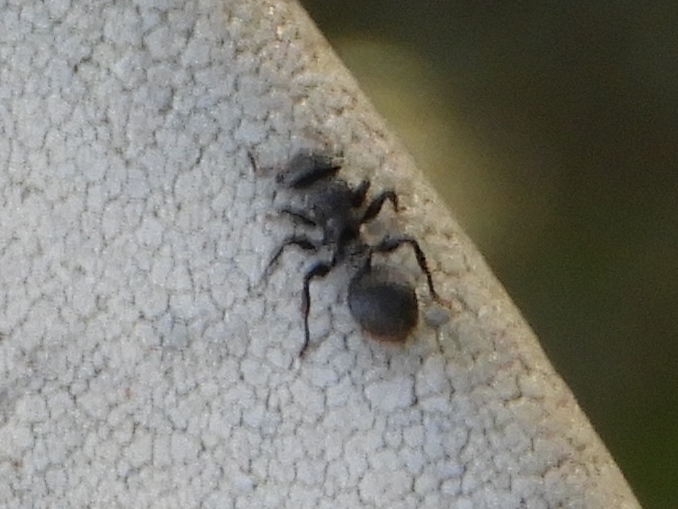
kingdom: Animalia
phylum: Arthropoda
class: Insecta
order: Hymenoptera
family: Formicidae
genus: Cephalotes
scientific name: Cephalotes goniodontus
